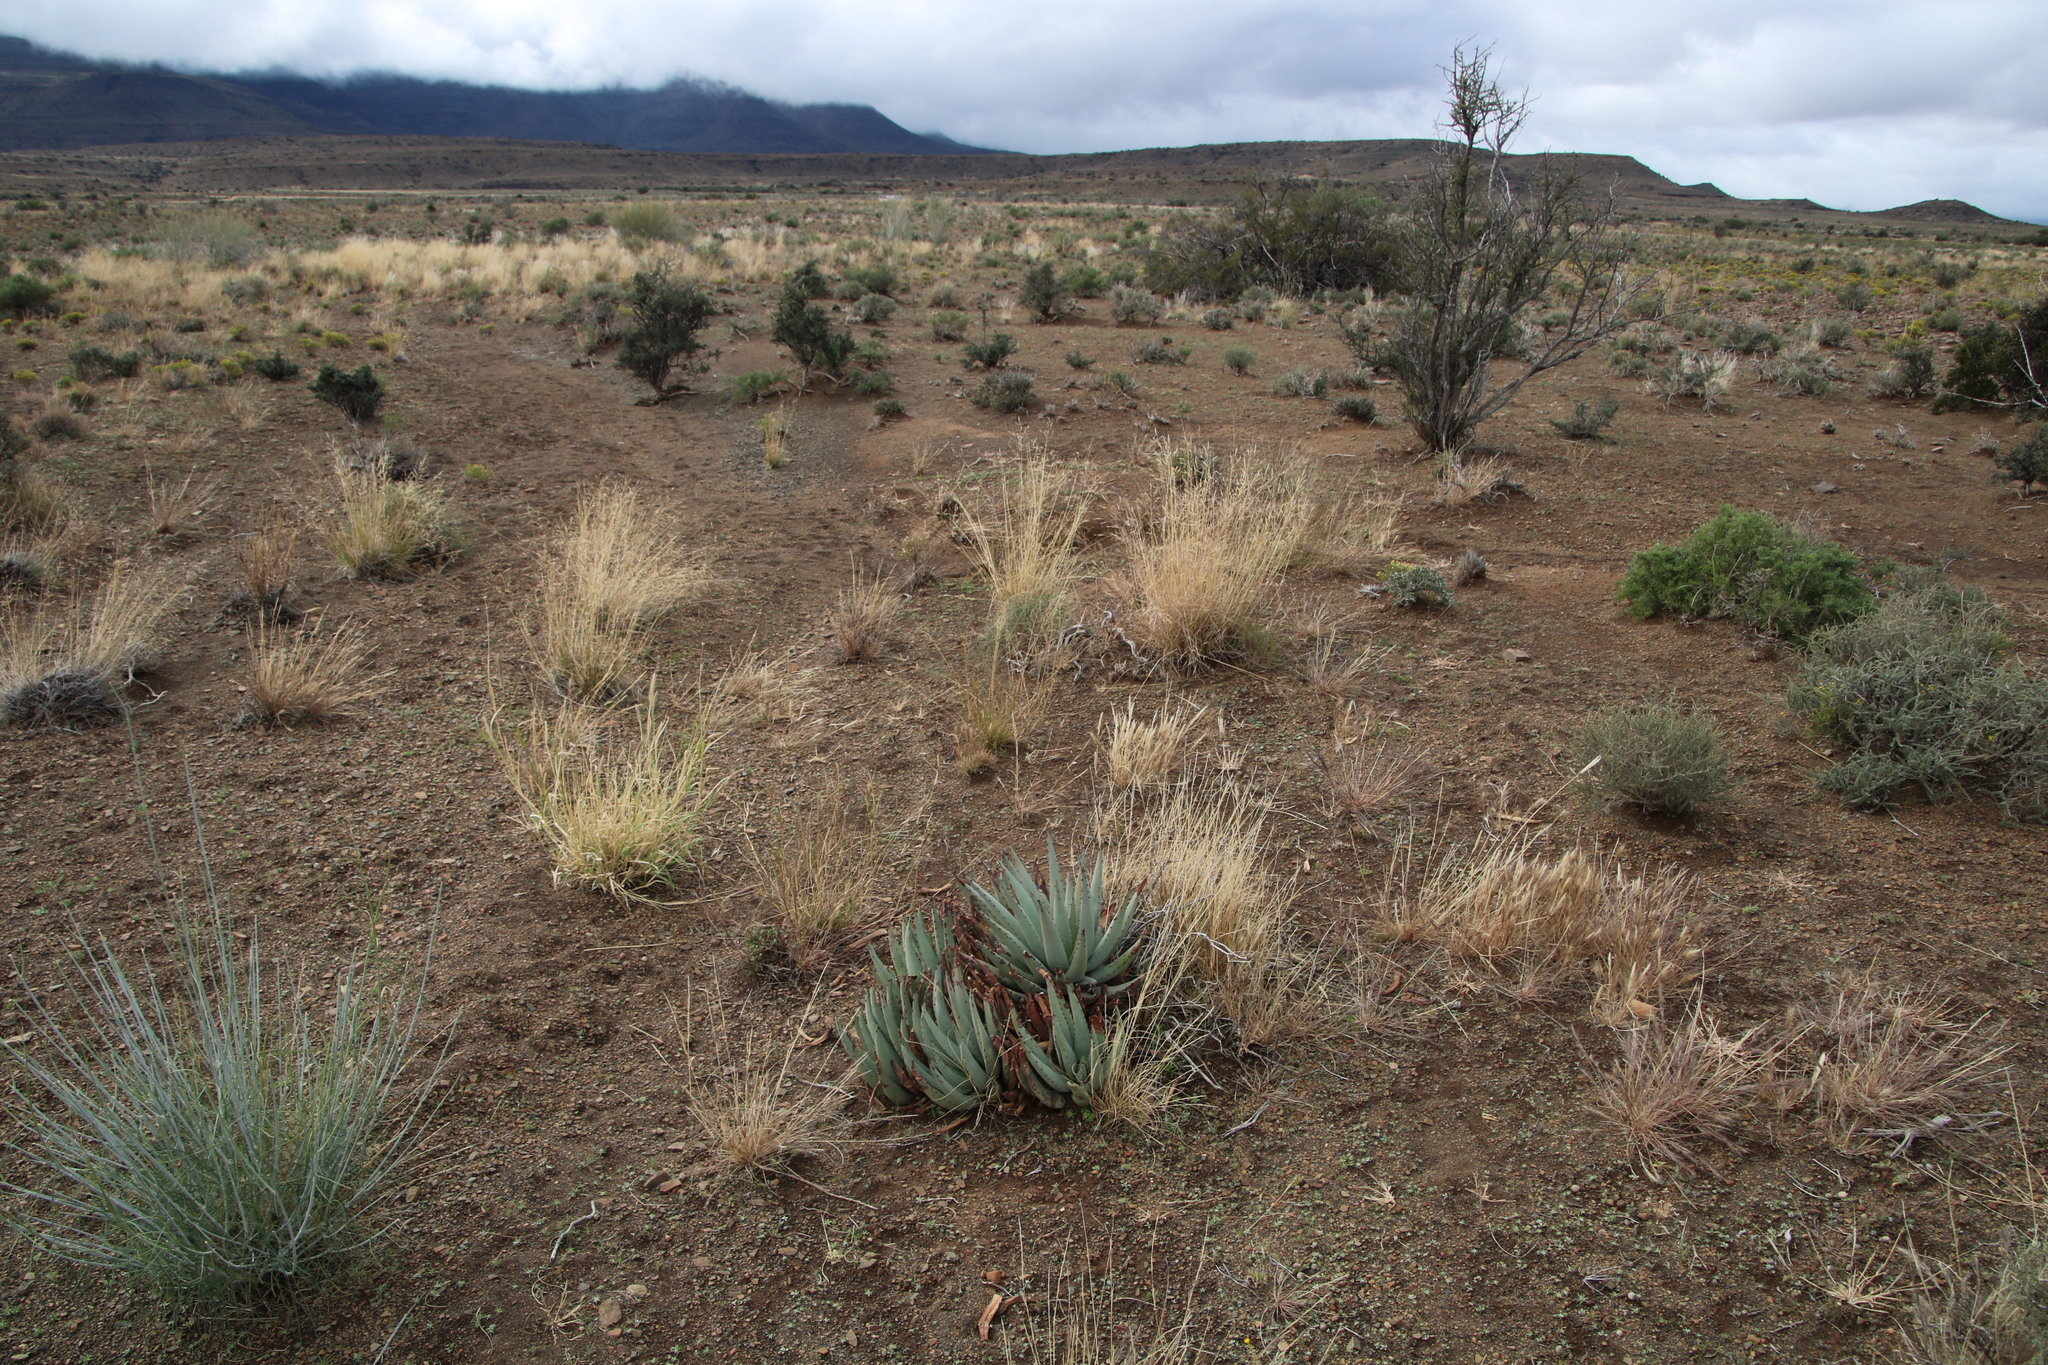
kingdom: Plantae
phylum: Tracheophyta
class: Liliopsida
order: Asparagales
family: Asphodelaceae
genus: Aloe
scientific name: Aloe claviflora
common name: Cannon aloe
